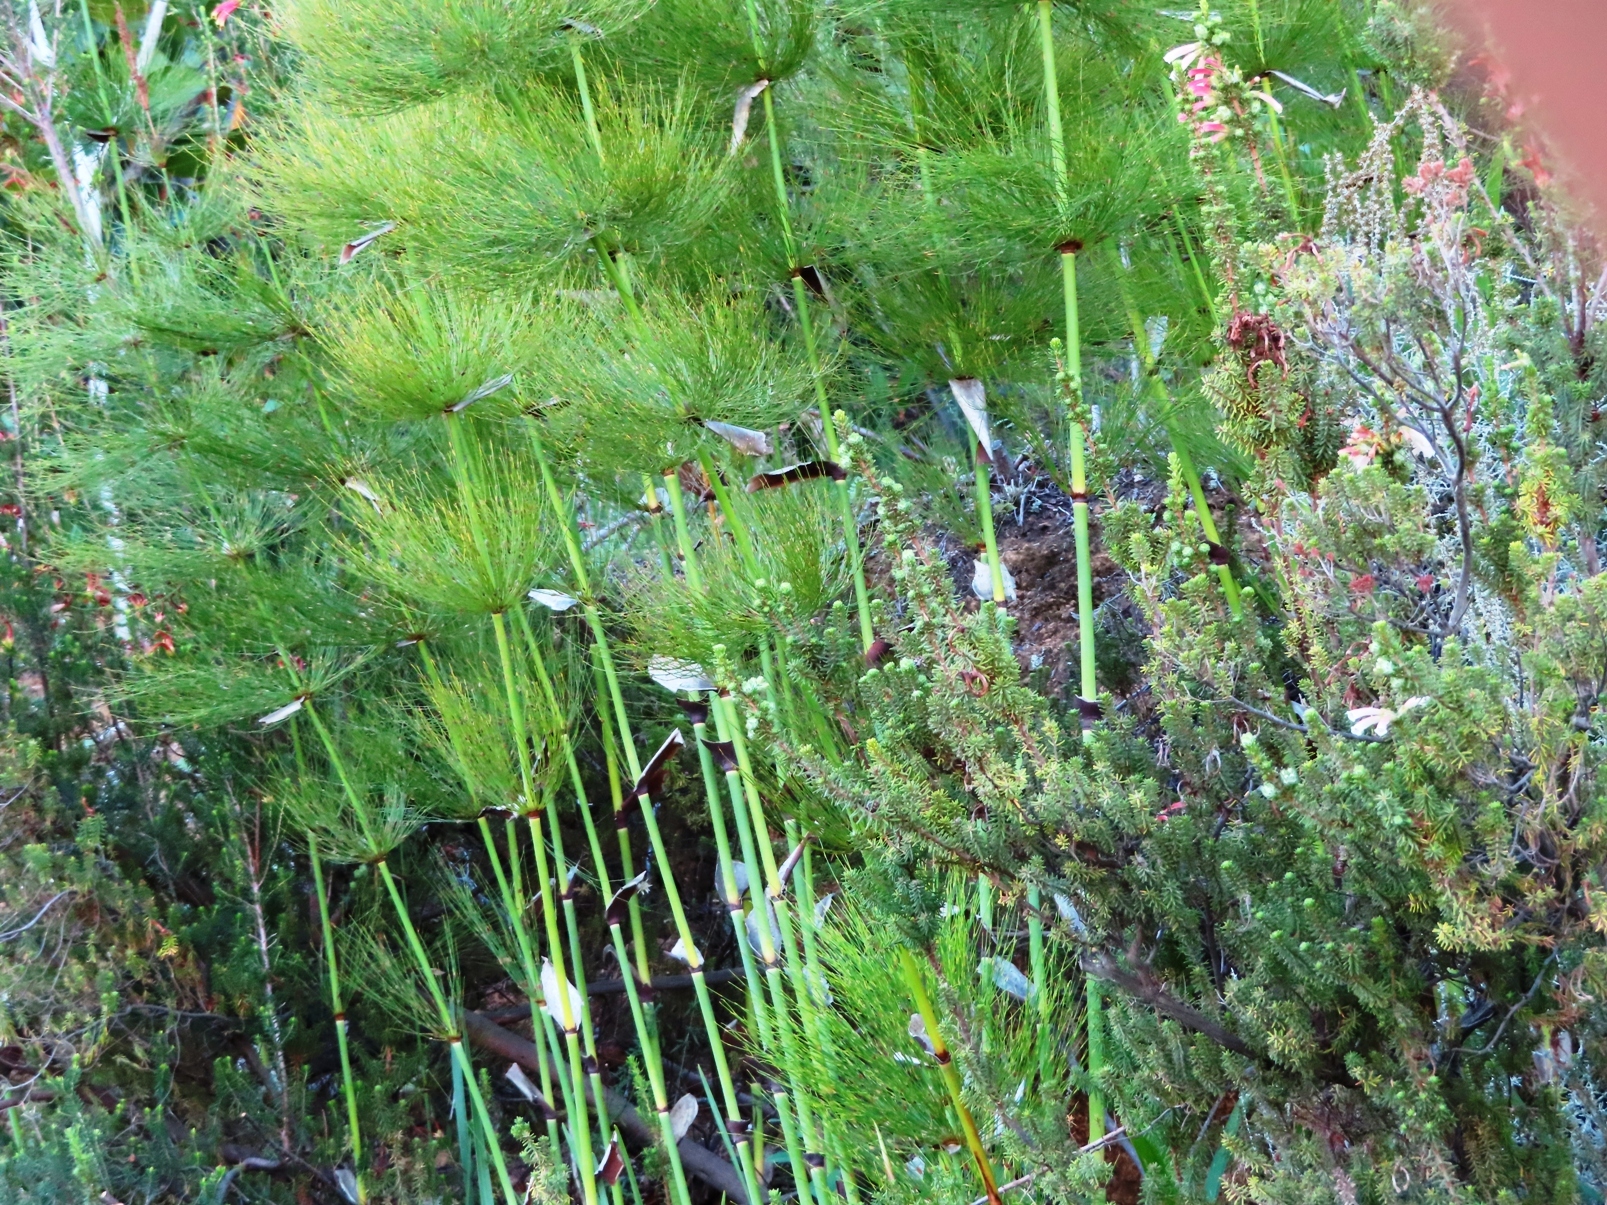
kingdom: Plantae
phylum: Tracheophyta
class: Liliopsida
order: Poales
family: Restionaceae
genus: Elegia
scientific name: Elegia capensis
